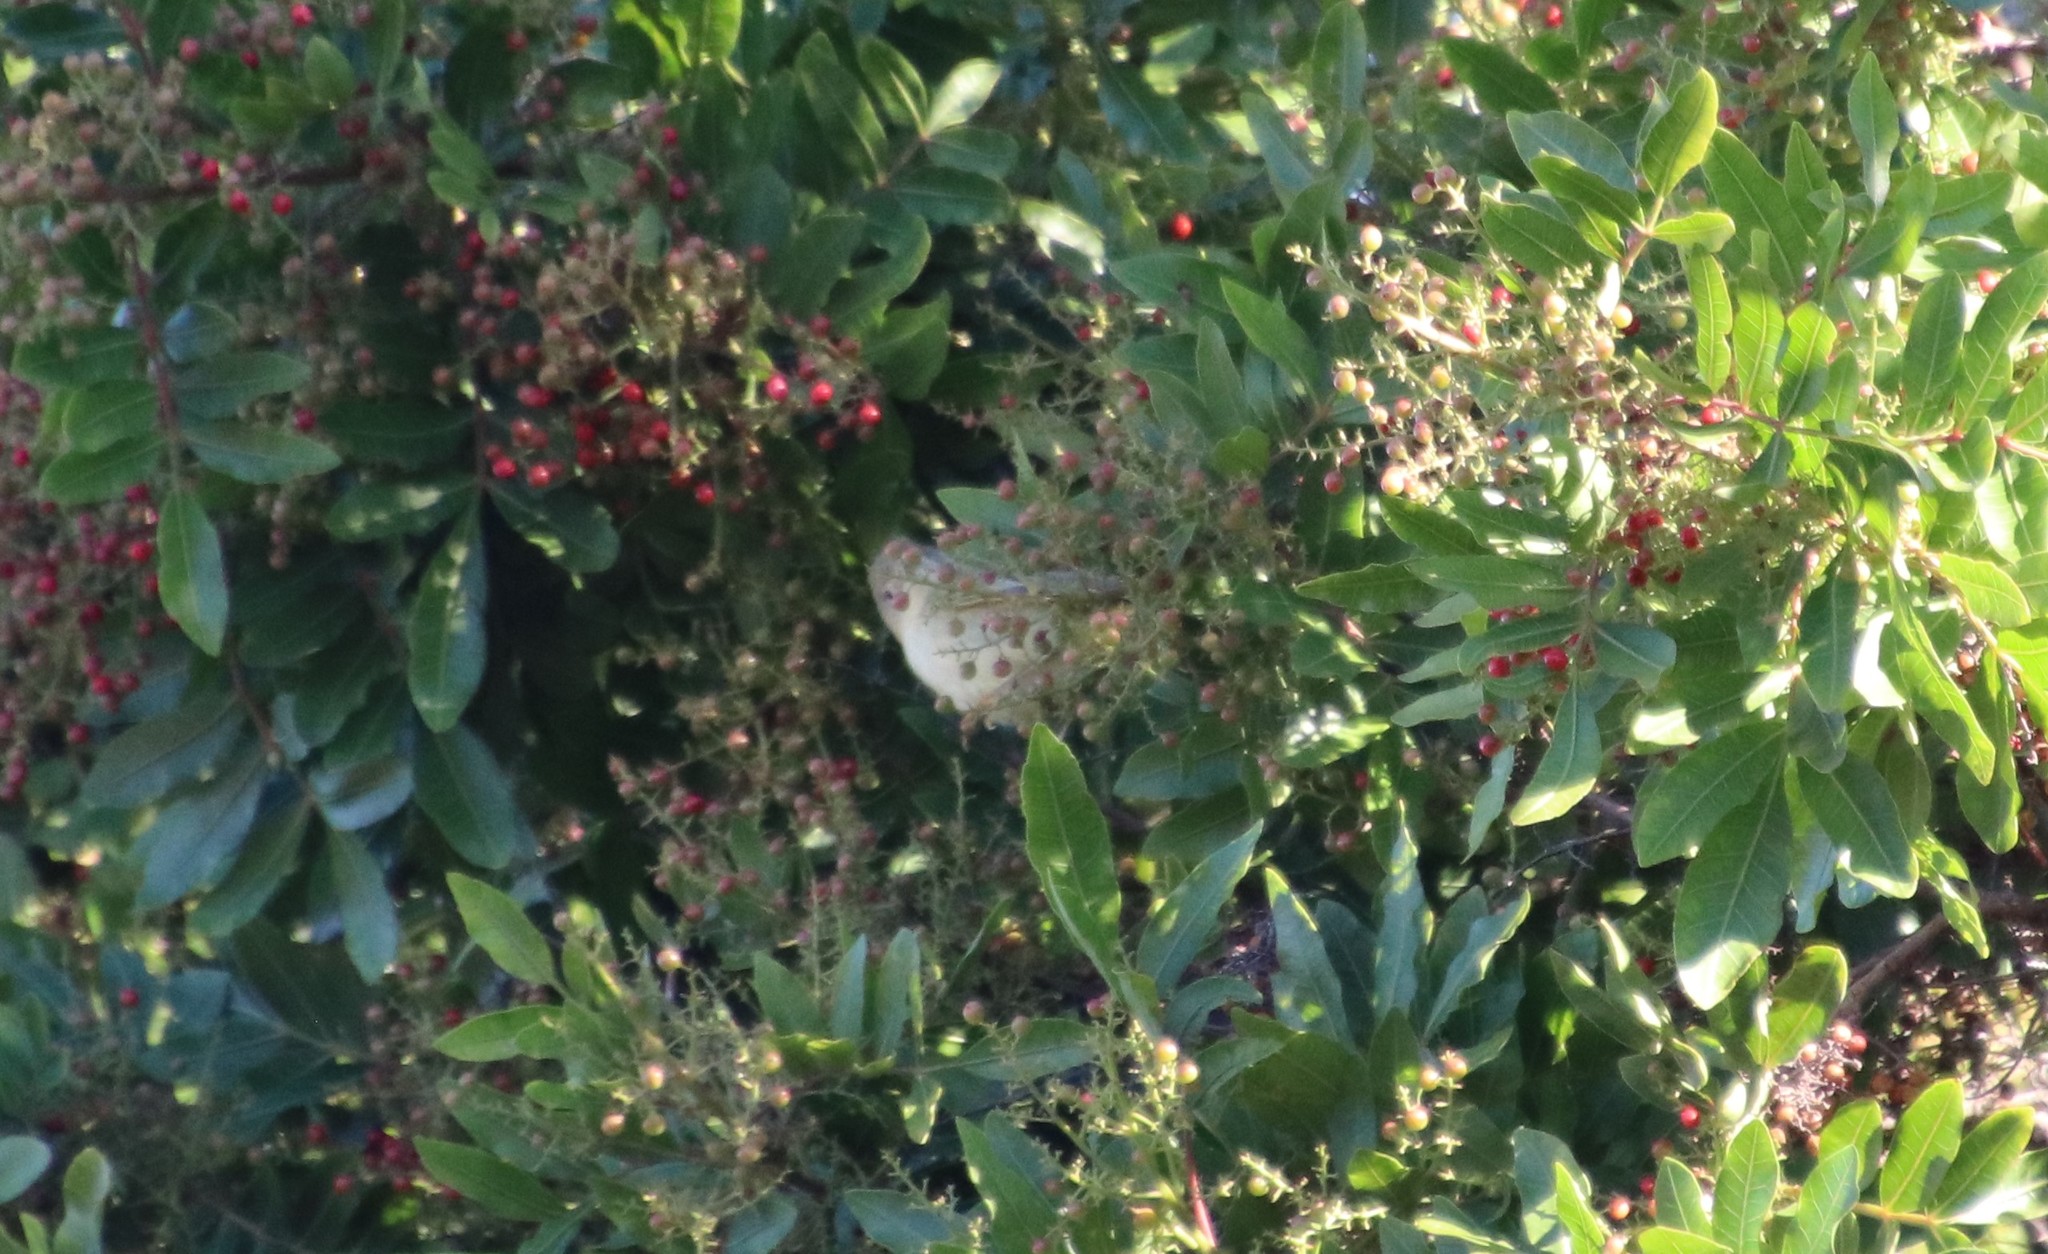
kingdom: Animalia
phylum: Chordata
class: Aves
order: Passeriformes
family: Parulidae
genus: Leiothlypis
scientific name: Leiothlypis celata
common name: Orange-crowned warbler
